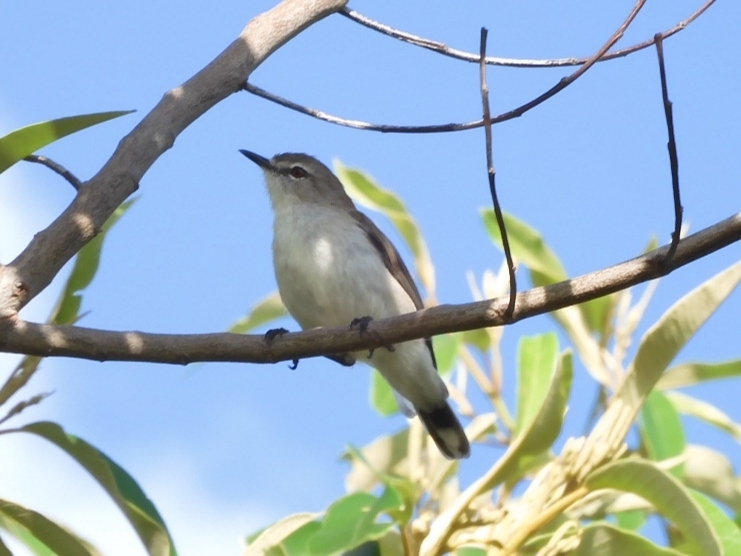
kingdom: Animalia
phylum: Chordata
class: Aves
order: Passeriformes
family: Acanthizidae
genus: Gerygone
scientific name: Gerygone levigaster
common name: Mangrove gerygone
